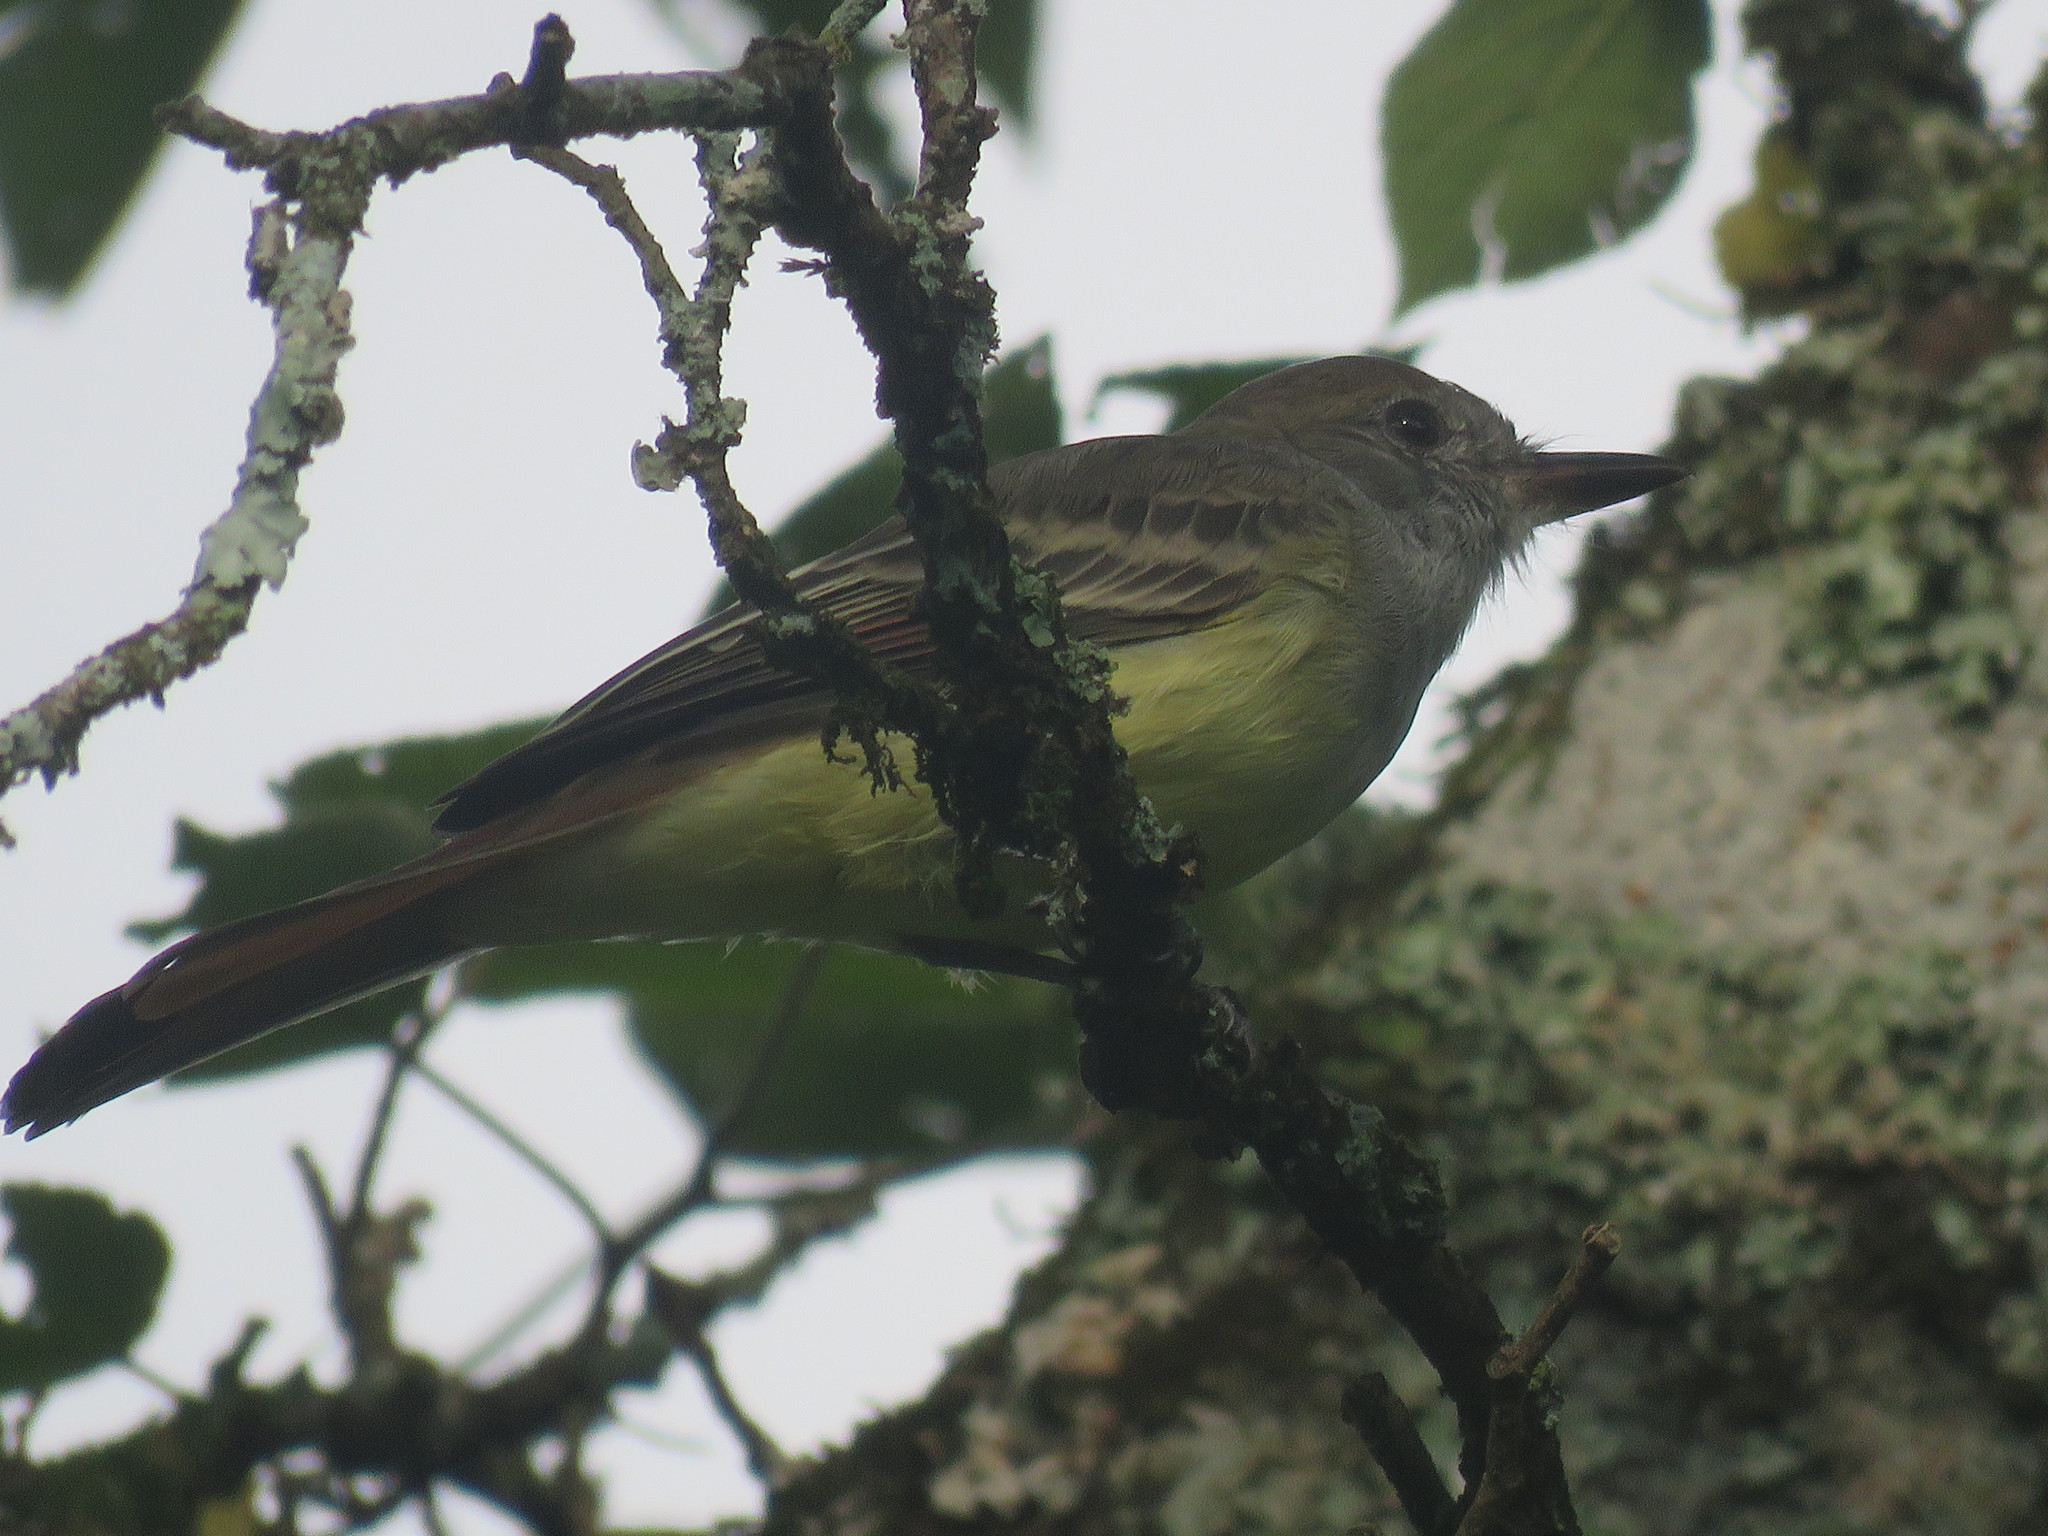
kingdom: Animalia
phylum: Chordata
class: Aves
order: Passeriformes
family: Tyrannidae
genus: Myiarchus
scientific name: Myiarchus tyrannulus
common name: Brown-crested flycatcher
